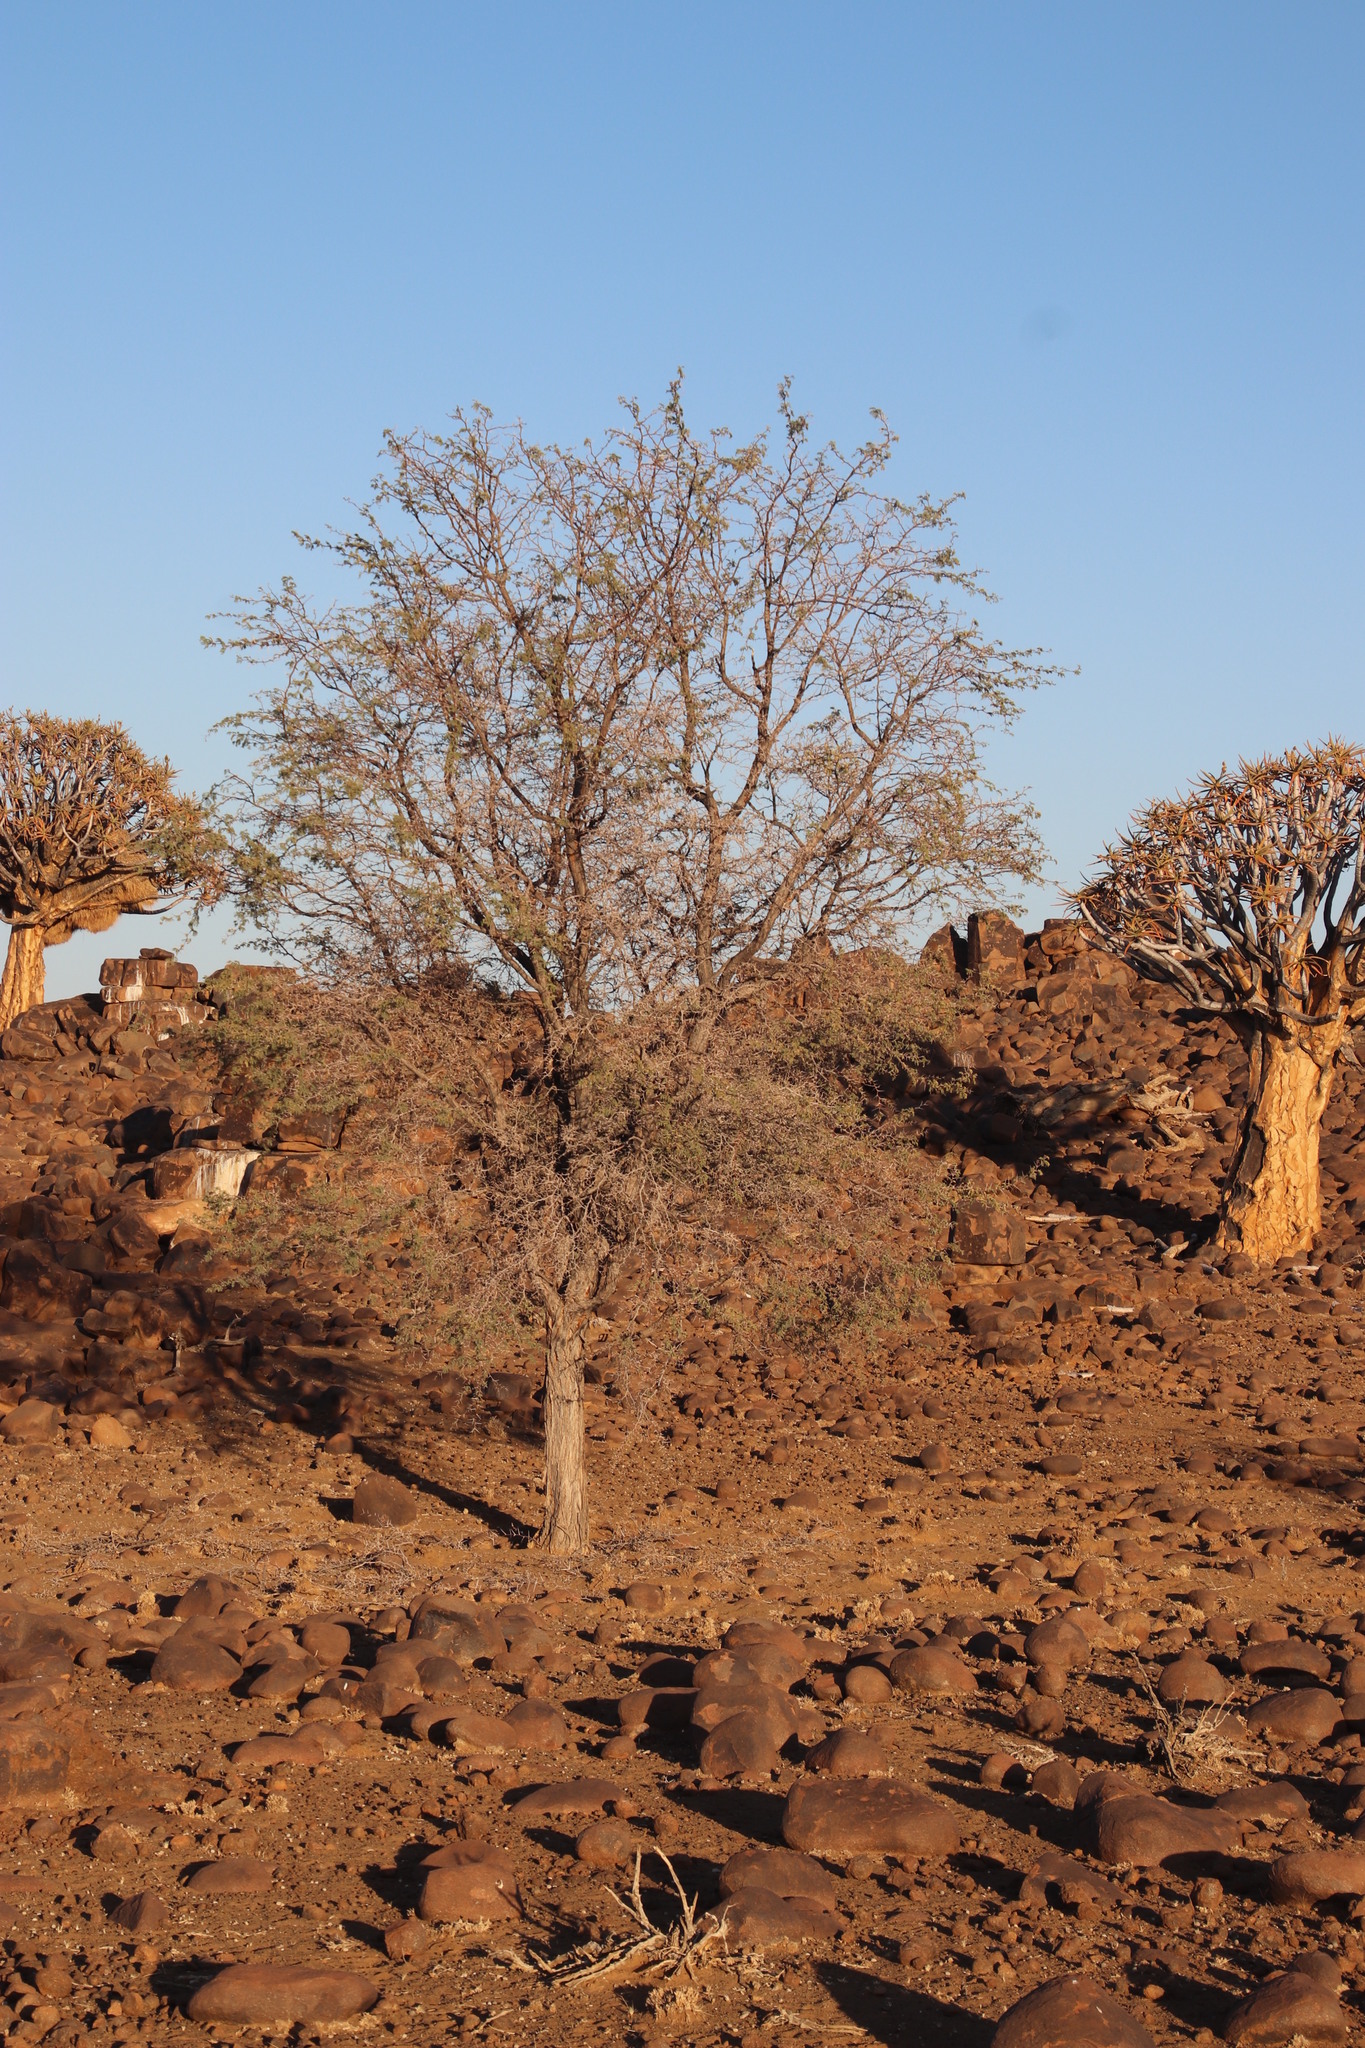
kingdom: Plantae
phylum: Tracheophyta
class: Magnoliopsida
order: Fabales
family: Fabaceae
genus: Vachellia
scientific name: Vachellia erioloba
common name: Camel thorn
